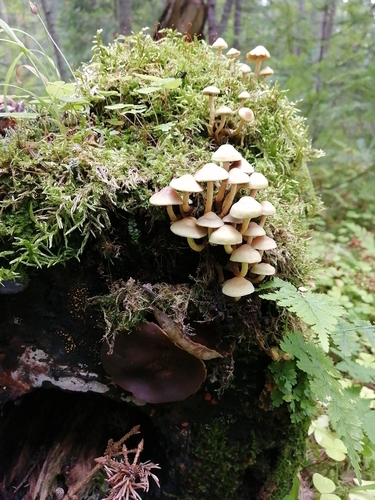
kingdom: Fungi
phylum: Basidiomycota
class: Agaricomycetes
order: Agaricales
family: Strophariaceae
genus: Hypholoma
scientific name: Hypholoma capnoides
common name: Conifer tuft
